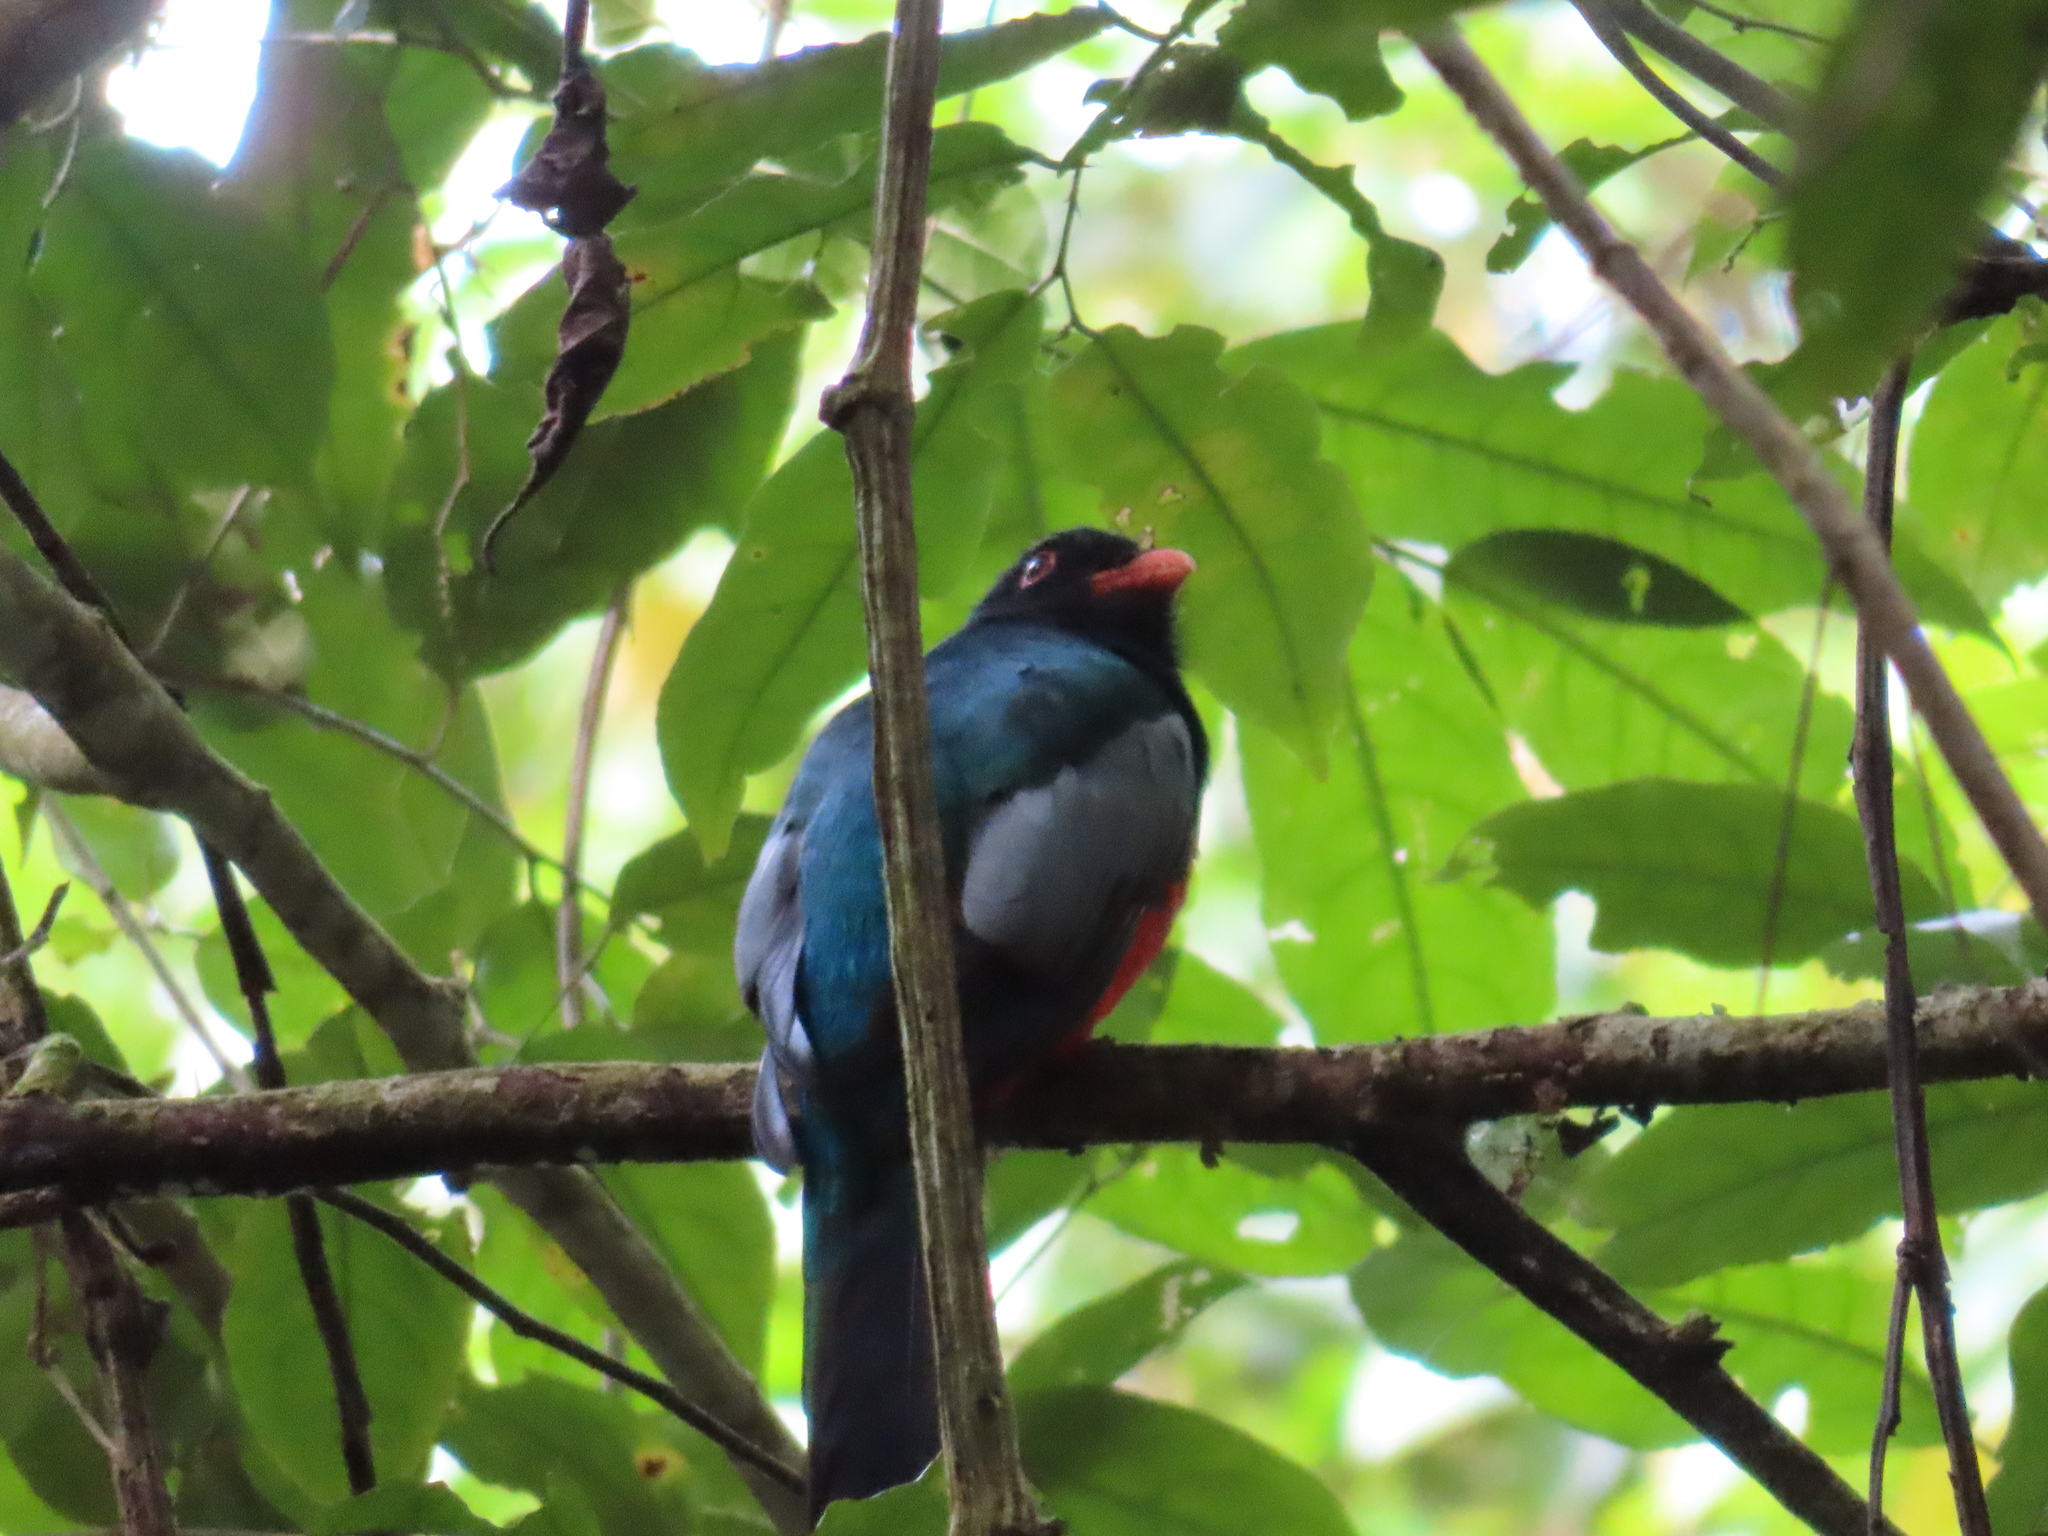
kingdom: Animalia
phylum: Chordata
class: Aves
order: Trogoniformes
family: Trogonidae
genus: Trogon
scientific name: Trogon massena
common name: Slaty-tailed trogon
